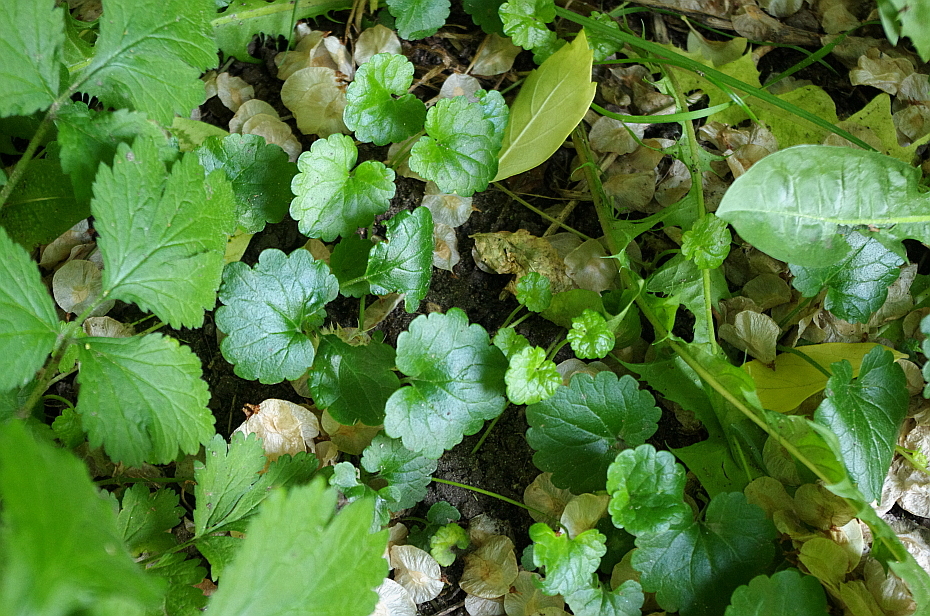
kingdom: Plantae
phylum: Tracheophyta
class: Magnoliopsida
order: Lamiales
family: Lamiaceae
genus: Glechoma
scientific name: Glechoma hederacea
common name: Ground ivy
